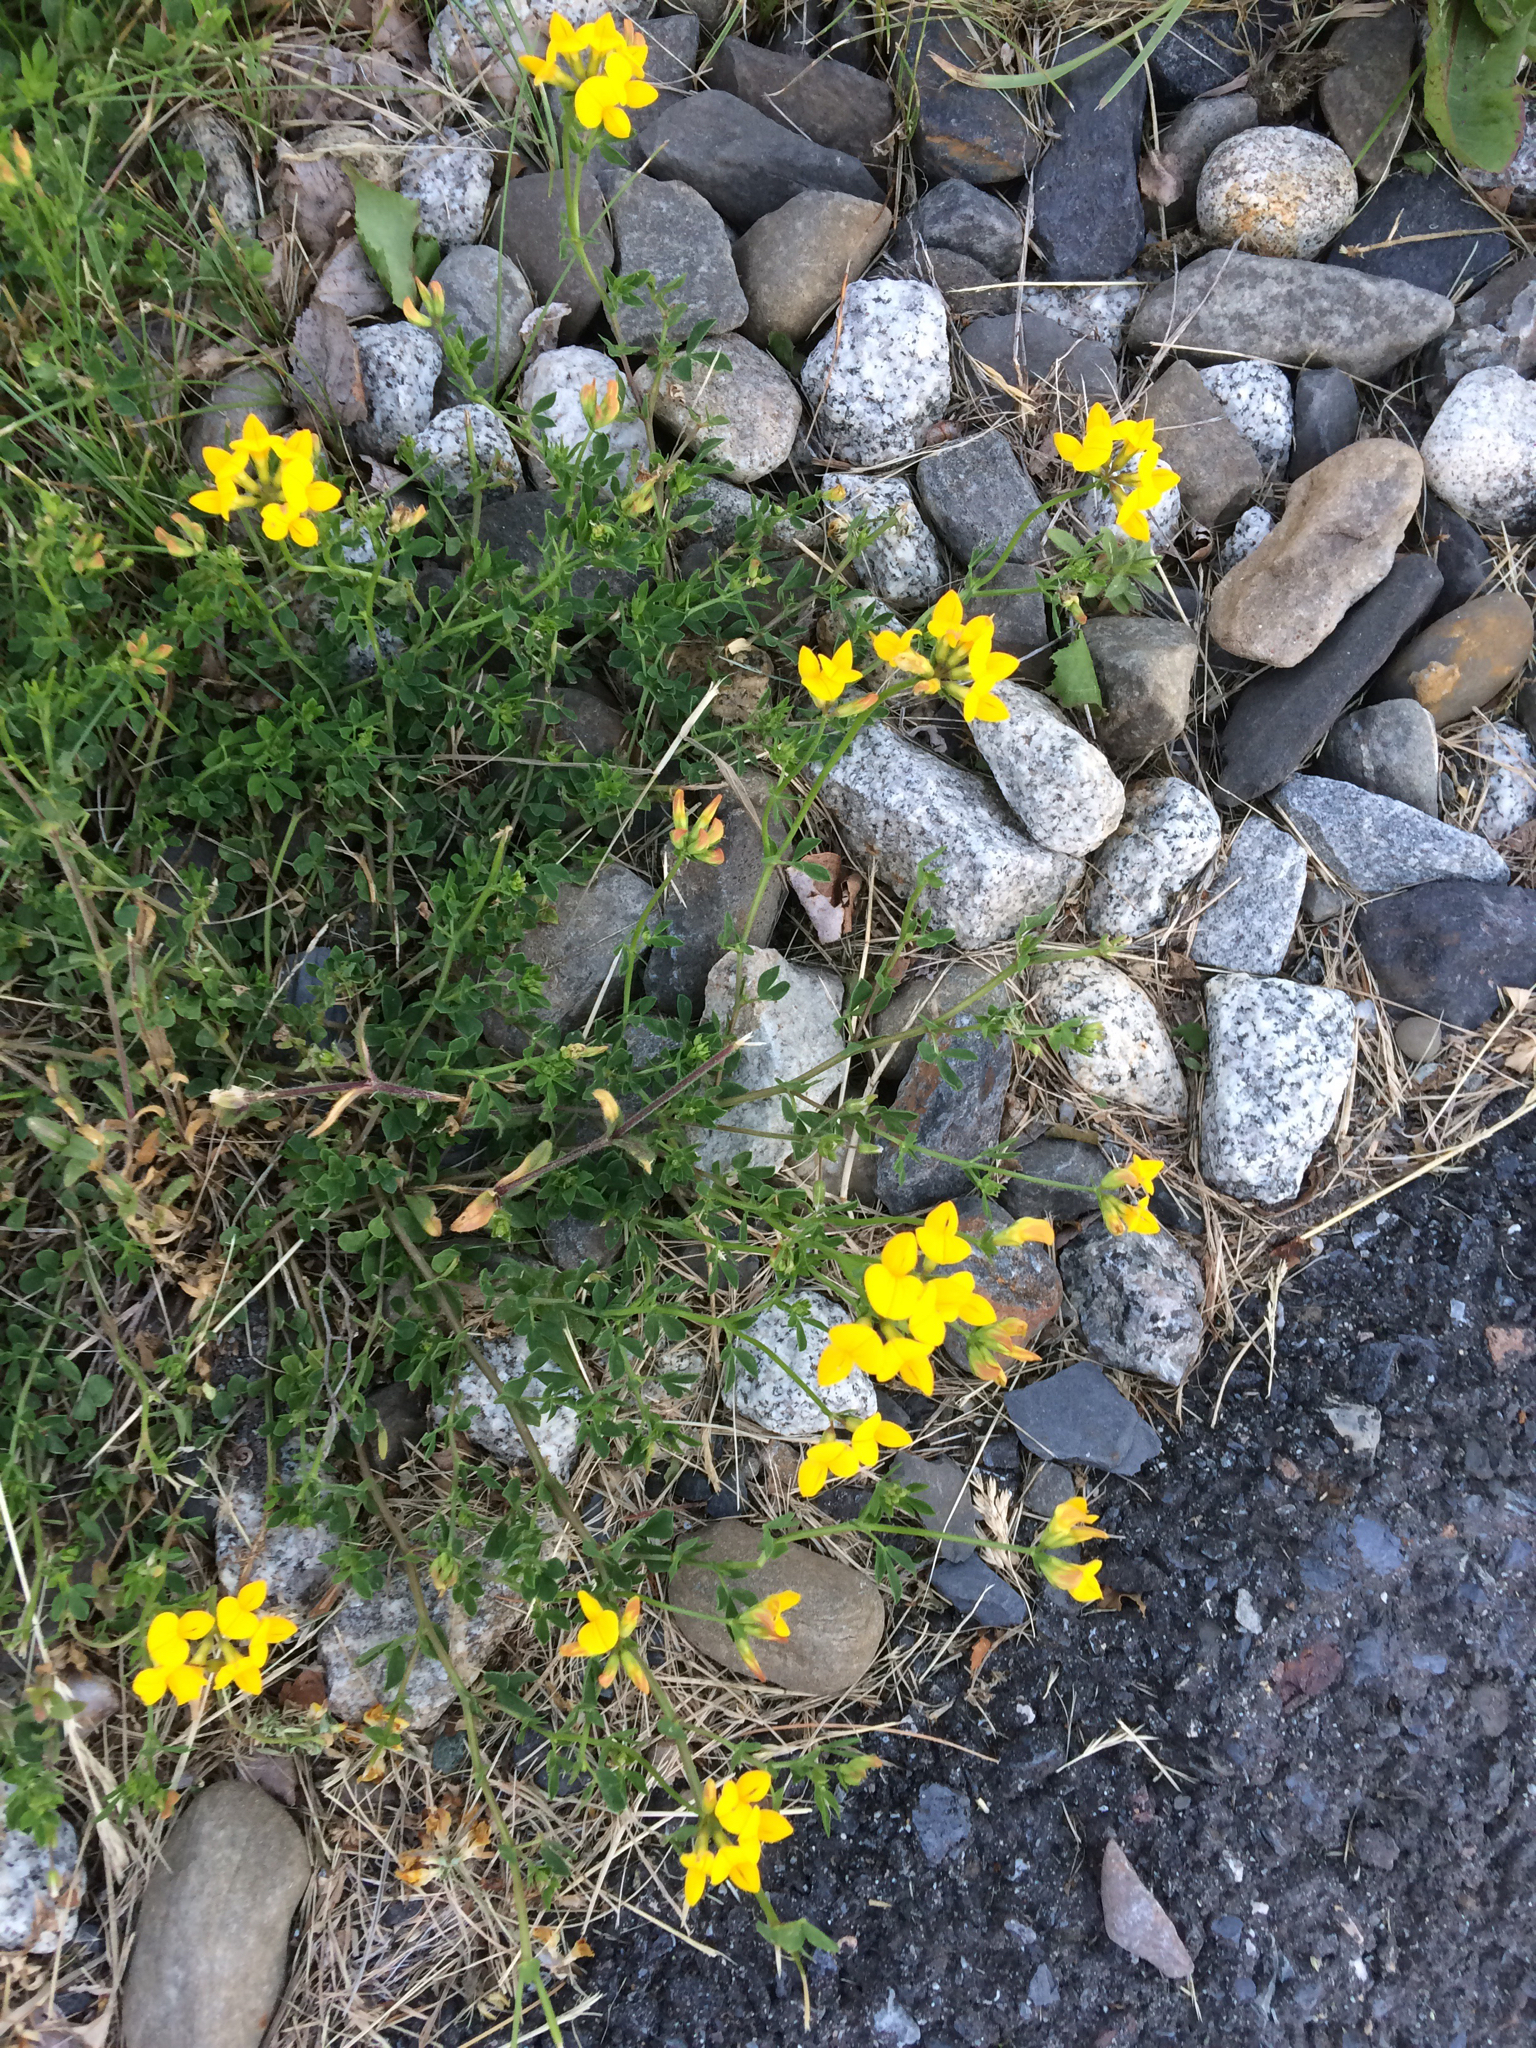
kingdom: Plantae
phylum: Tracheophyta
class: Magnoliopsida
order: Fabales
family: Fabaceae
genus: Lotus
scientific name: Lotus corniculatus
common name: Common bird's-foot-trefoil
